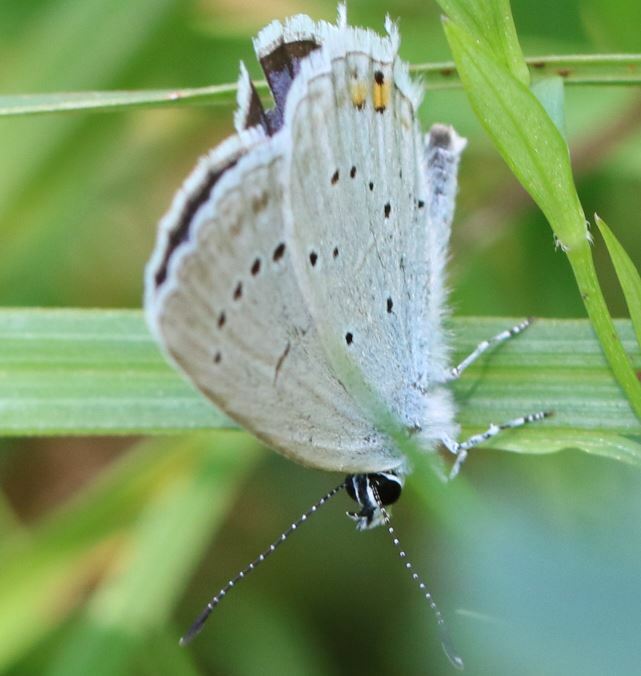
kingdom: Animalia
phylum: Arthropoda
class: Insecta
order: Lepidoptera
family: Lycaenidae
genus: Elkalyce
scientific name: Elkalyce argiades
